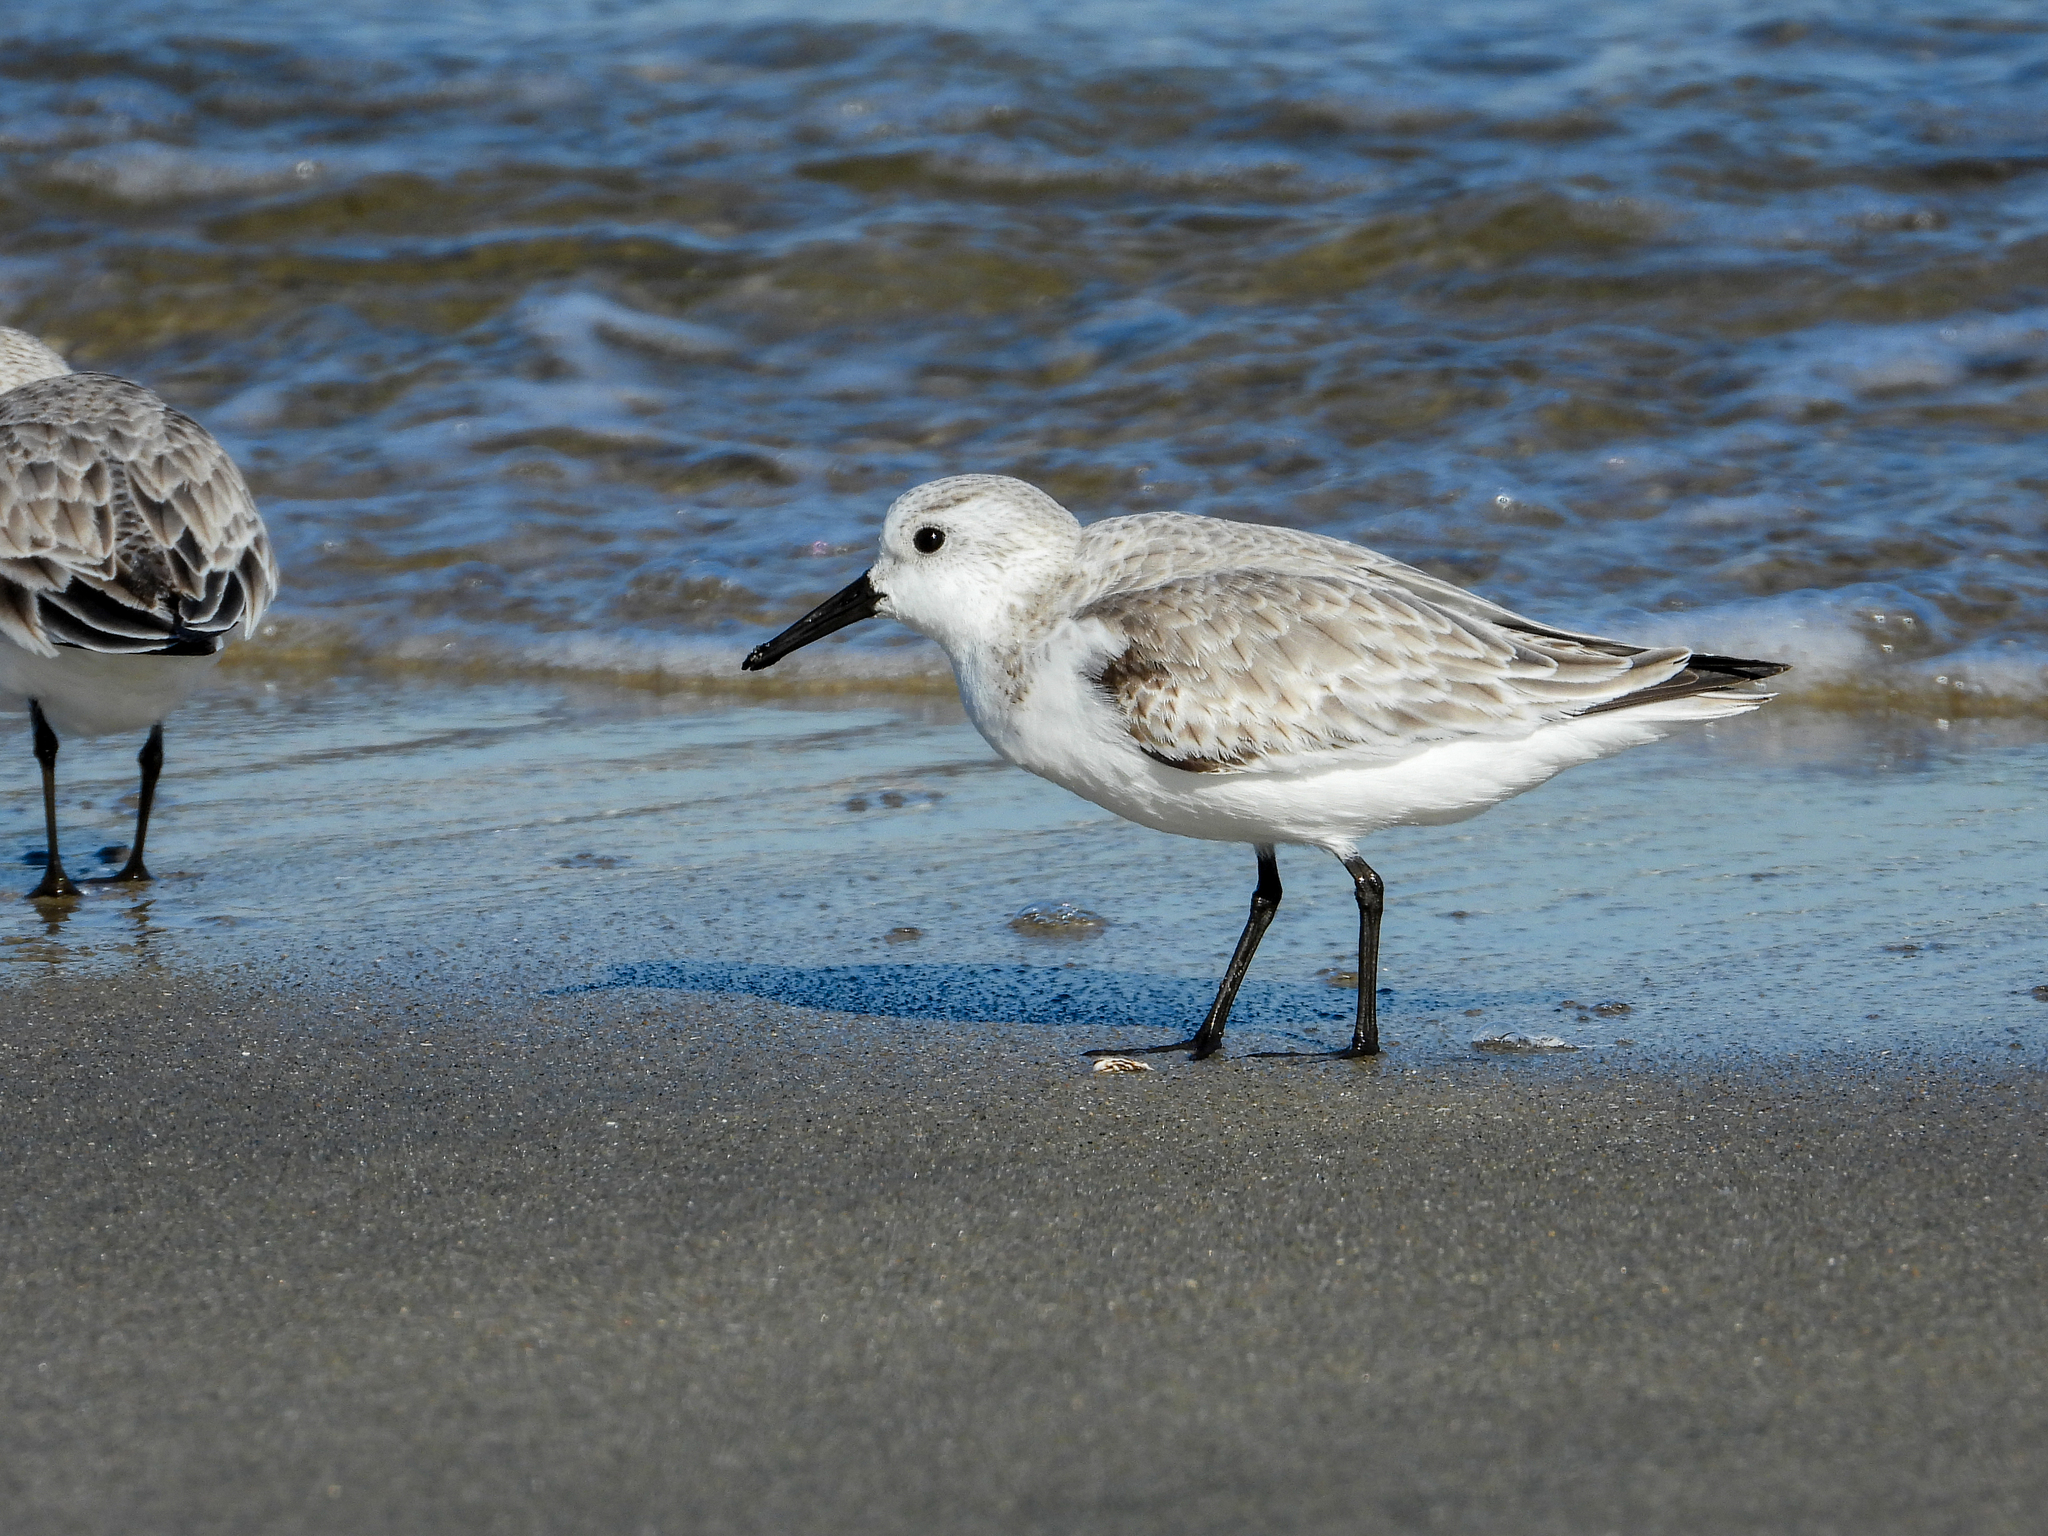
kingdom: Animalia
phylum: Chordata
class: Aves
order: Charadriiformes
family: Scolopacidae
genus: Calidris
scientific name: Calidris alba
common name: Sanderling
